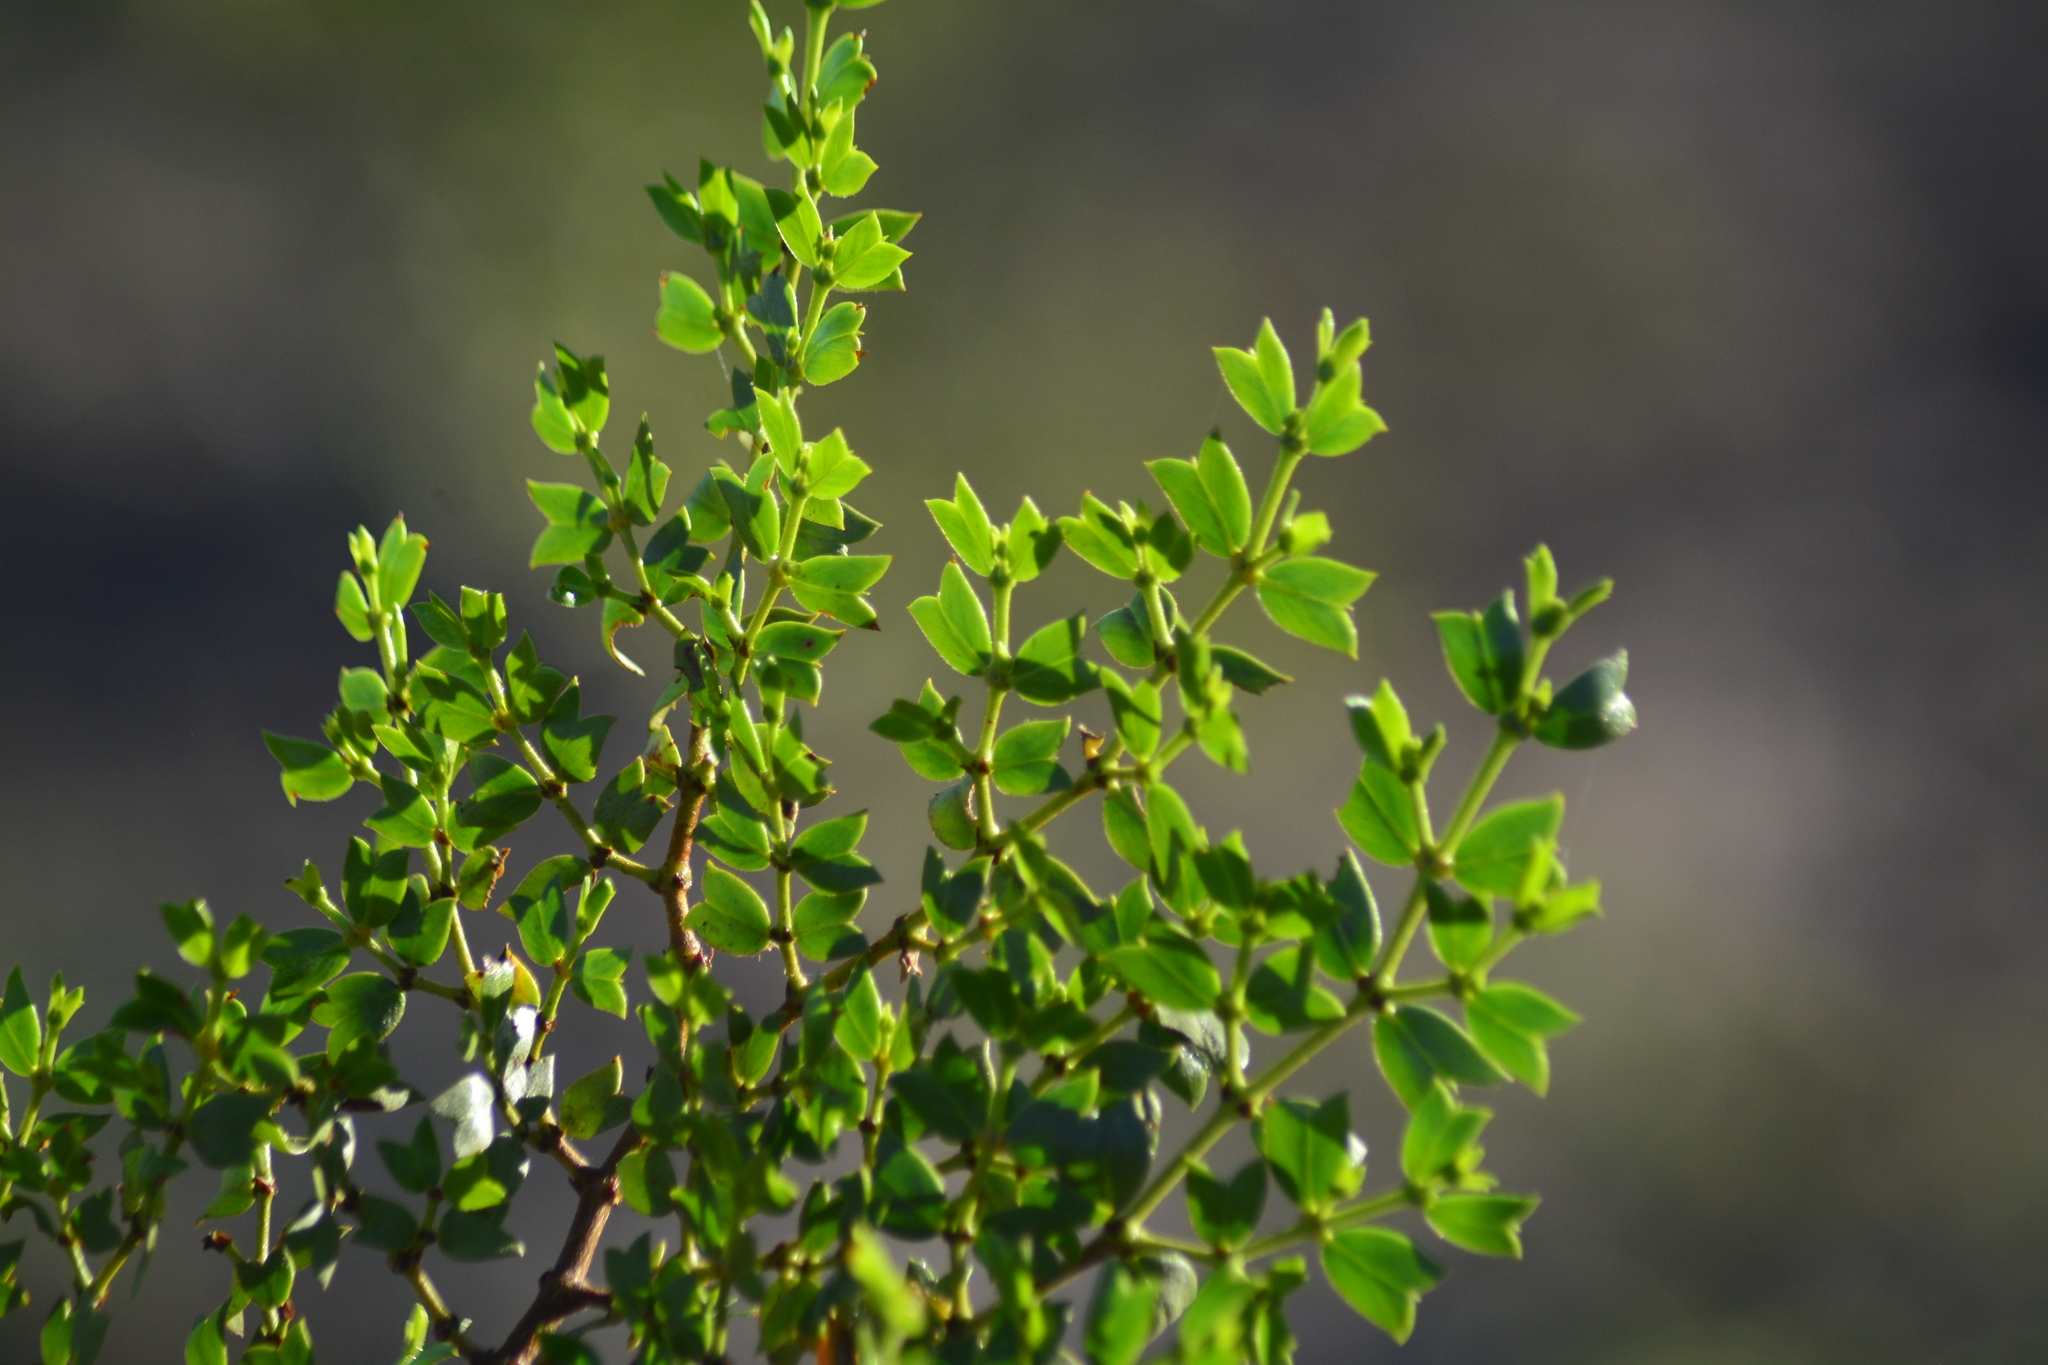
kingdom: Plantae
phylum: Tracheophyta
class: Magnoliopsida
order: Zygophyllales
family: Zygophyllaceae
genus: Larrea
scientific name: Larrea cuneifolia
